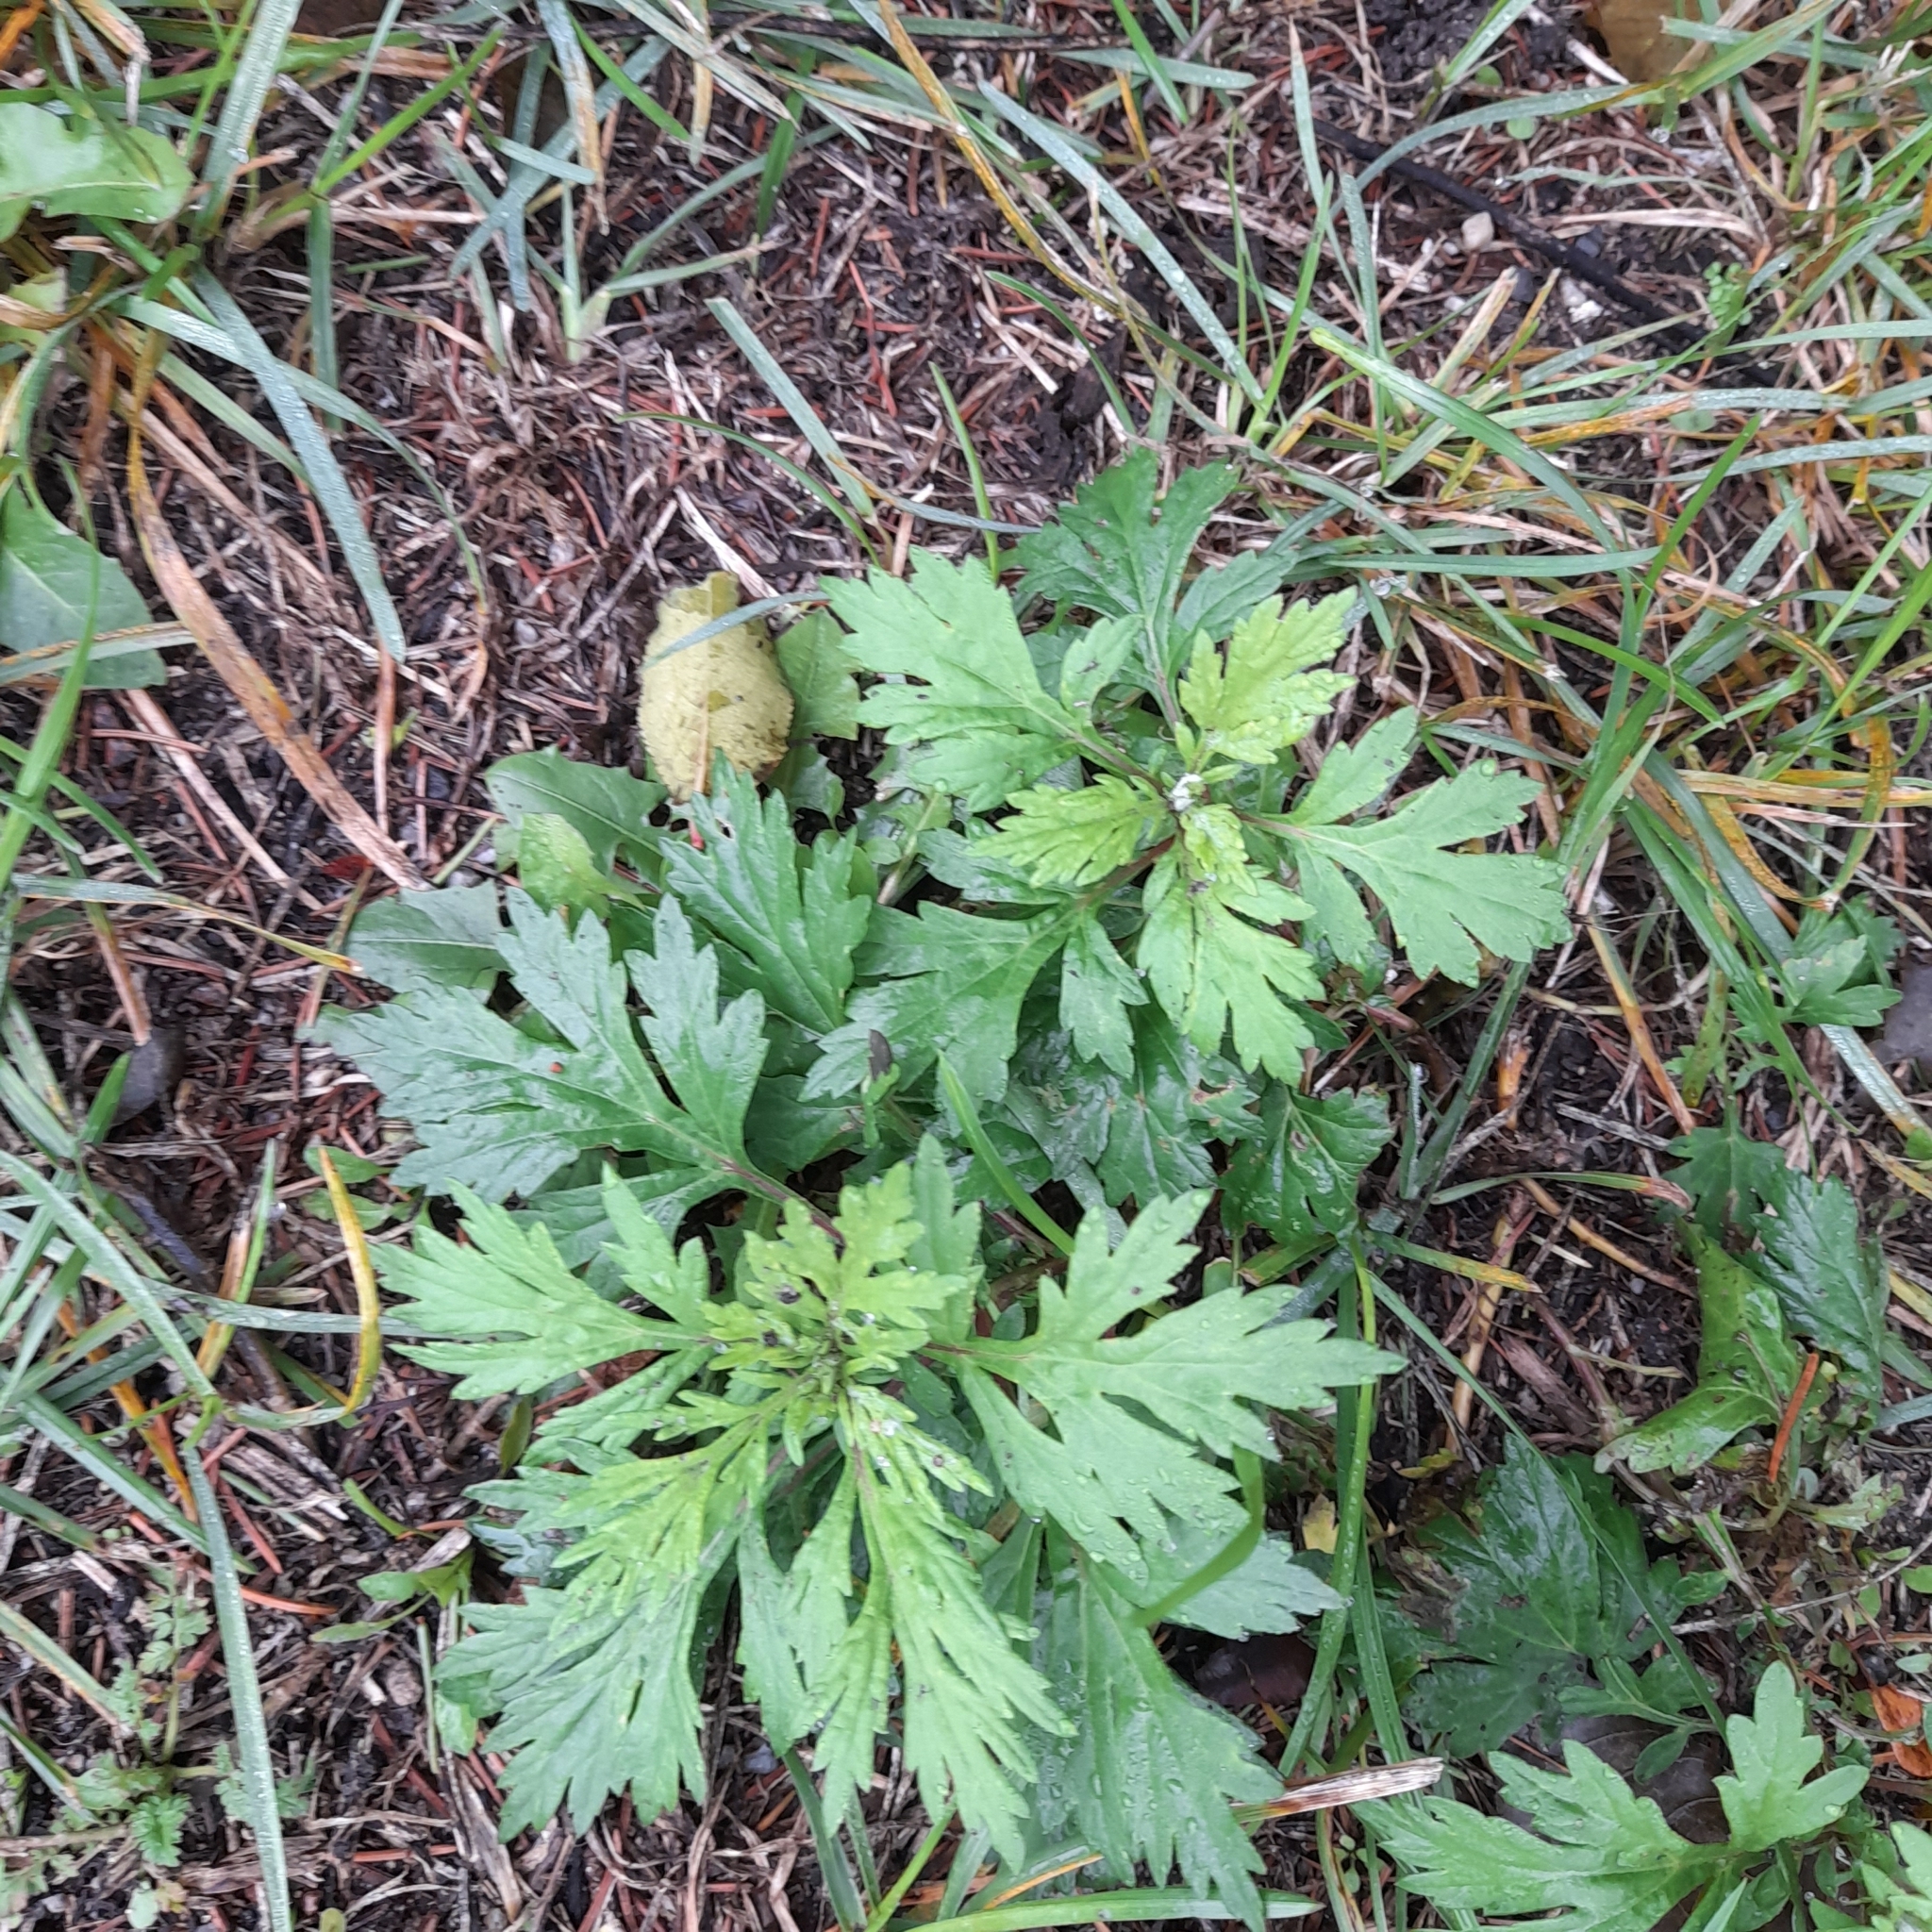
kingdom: Plantae
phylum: Tracheophyta
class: Magnoliopsida
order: Asterales
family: Asteraceae
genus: Artemisia
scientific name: Artemisia vulgaris
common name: Mugwort
